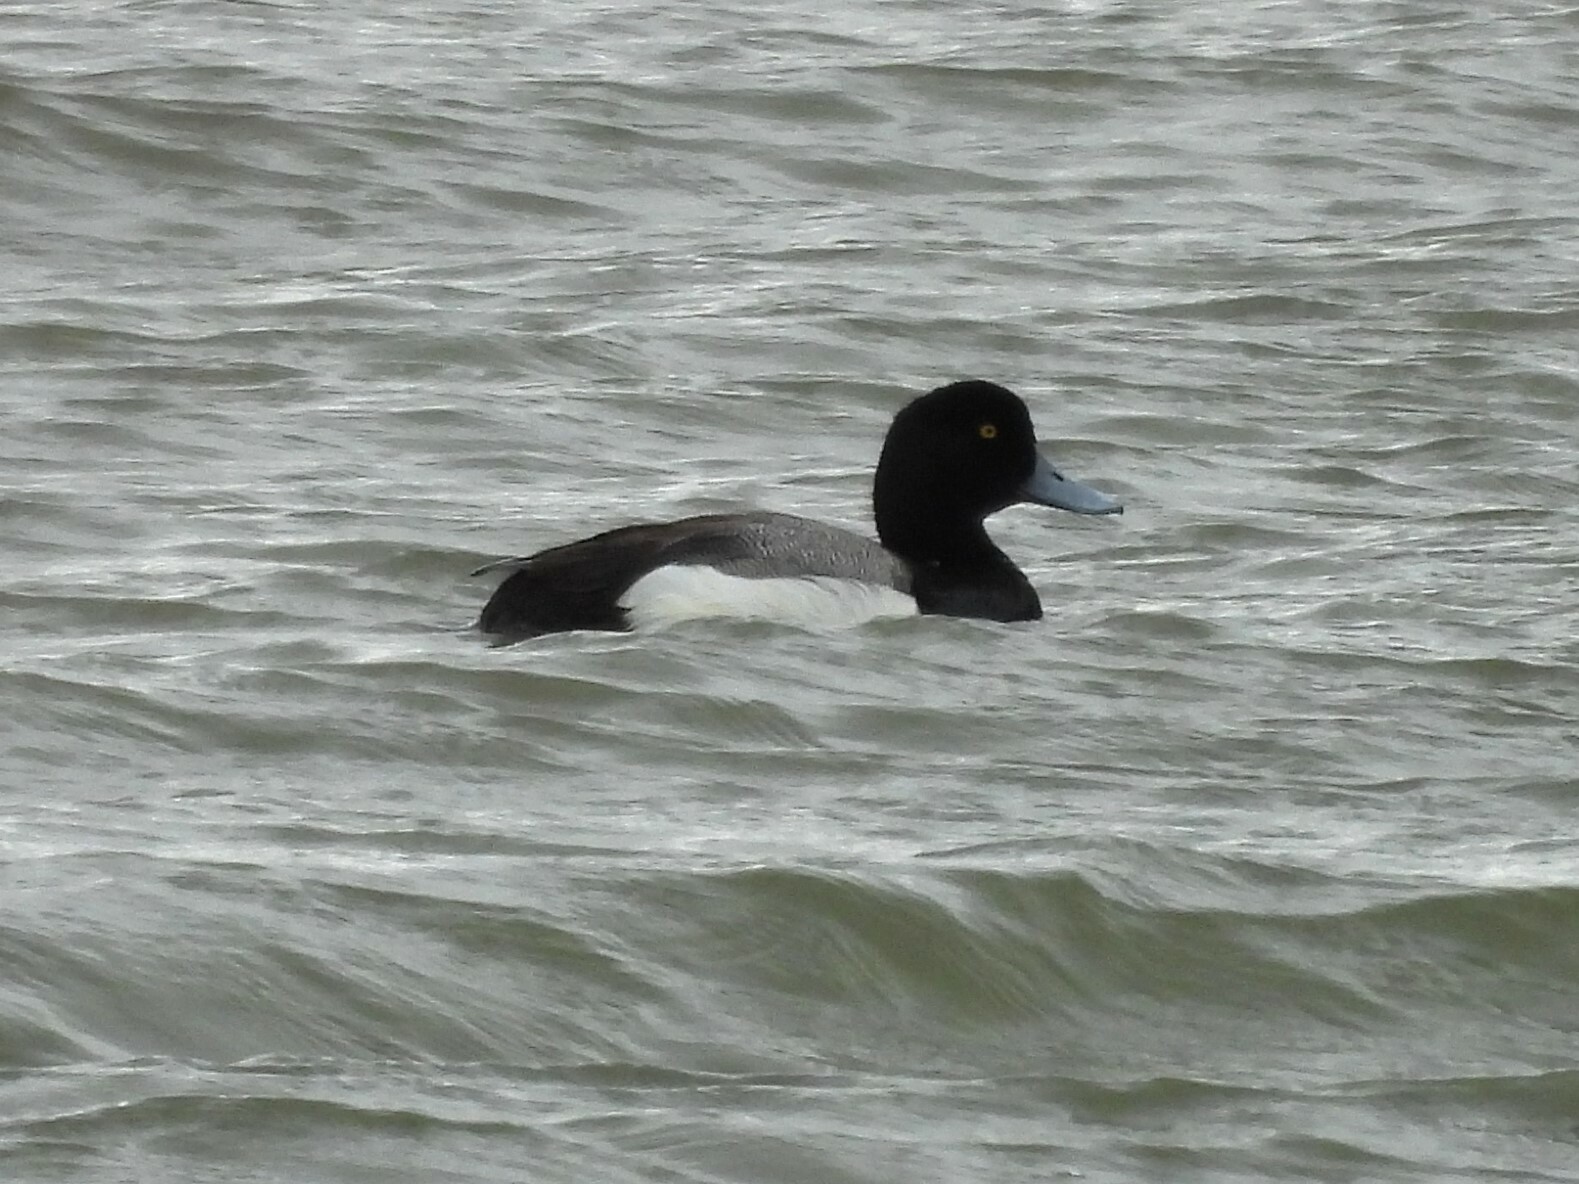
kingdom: Animalia
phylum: Chordata
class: Aves
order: Anseriformes
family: Anatidae
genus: Aythya
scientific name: Aythya affinis
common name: Lesser scaup
